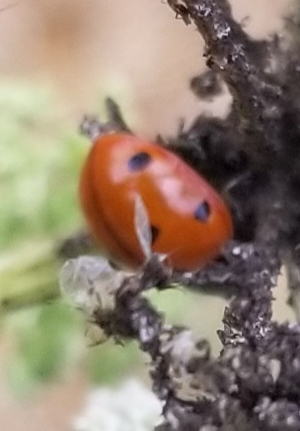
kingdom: Animalia
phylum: Arthropoda
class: Insecta
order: Coleoptera
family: Coccinellidae
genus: Coccinella
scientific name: Coccinella septempunctata
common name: Sevenspotted lady beetle
